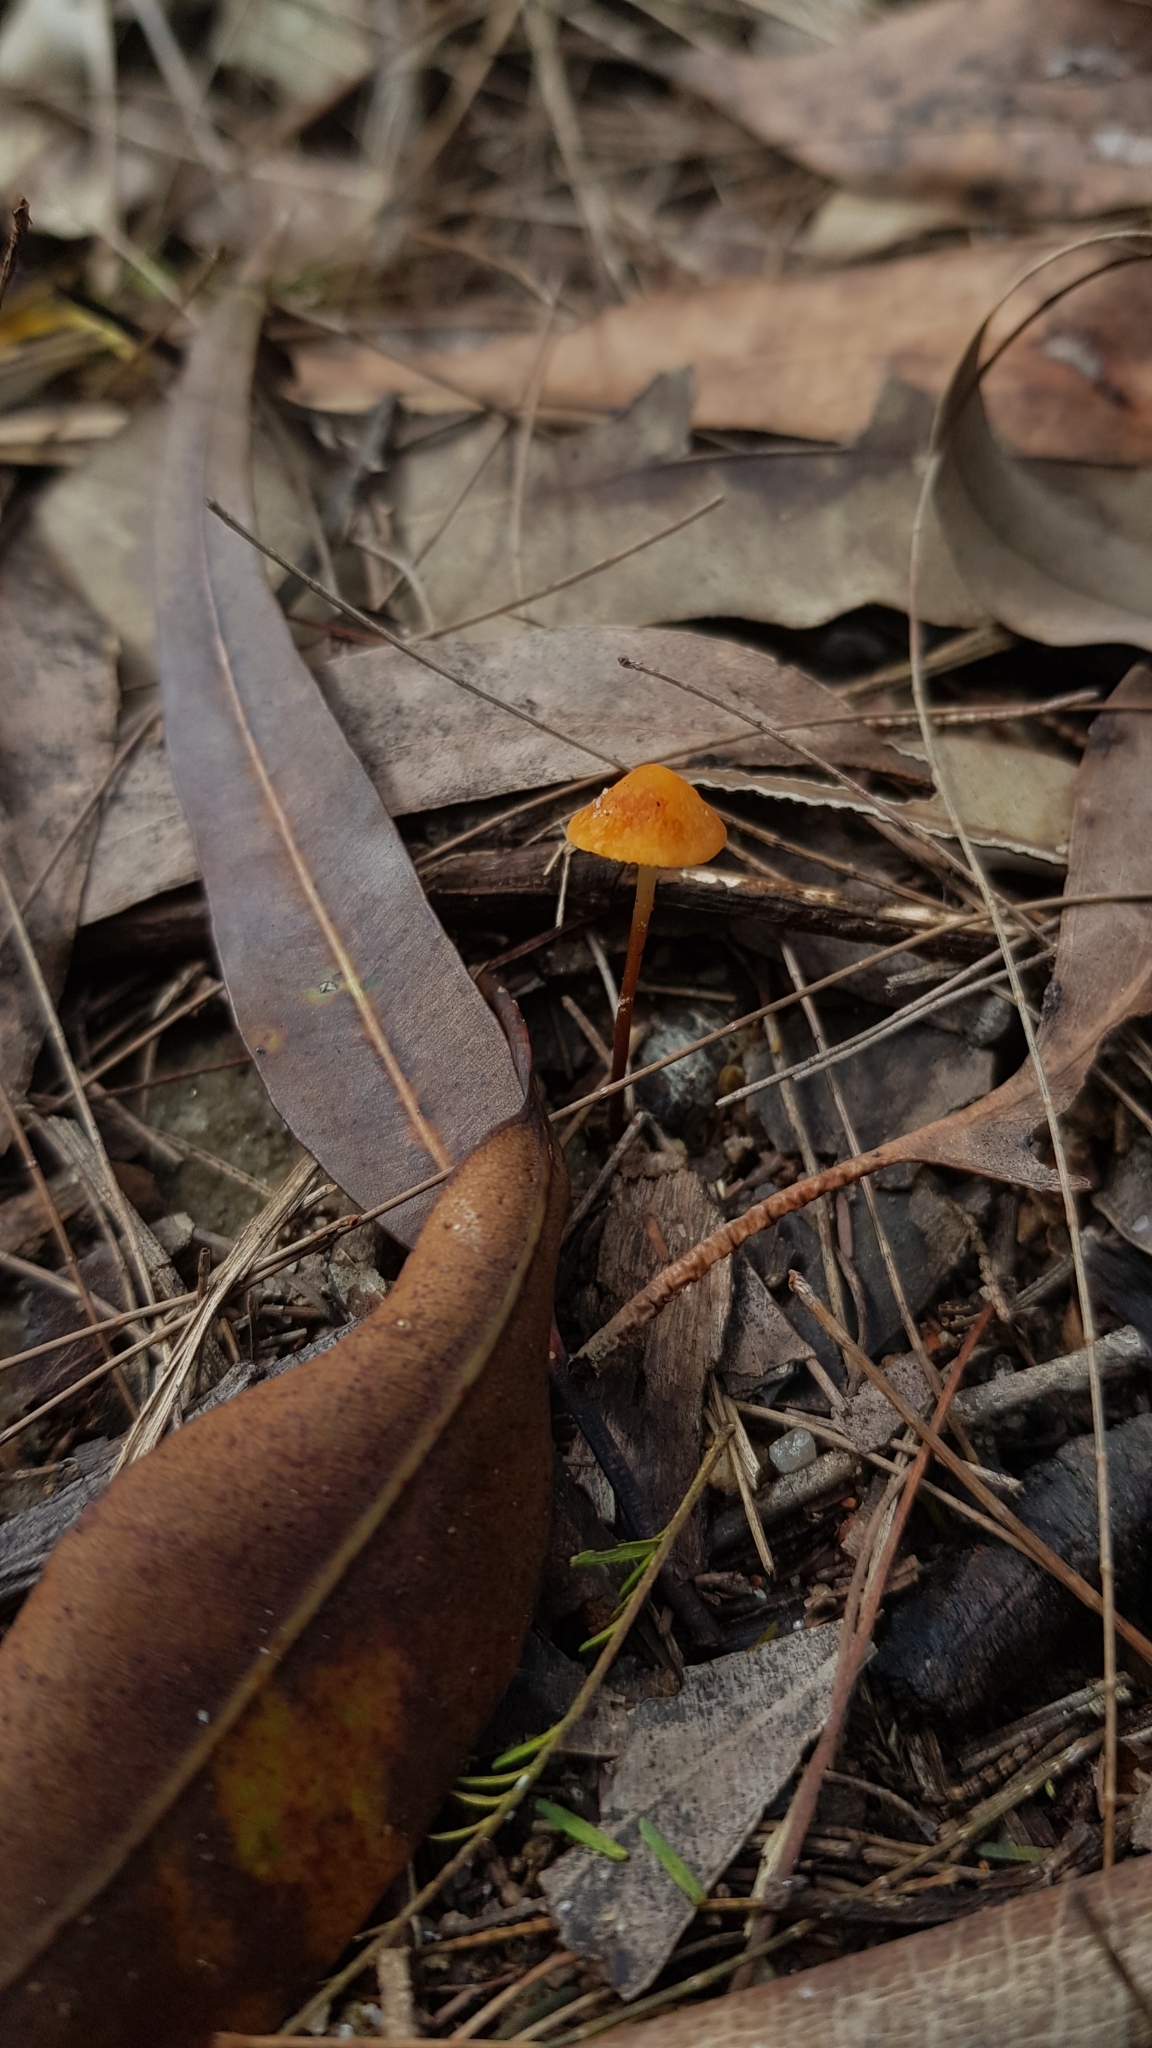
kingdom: Fungi
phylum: Basidiomycota
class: Agaricomycetes
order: Agaricales
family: Marasmiaceae
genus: Marasmius
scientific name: Marasmius elegans
